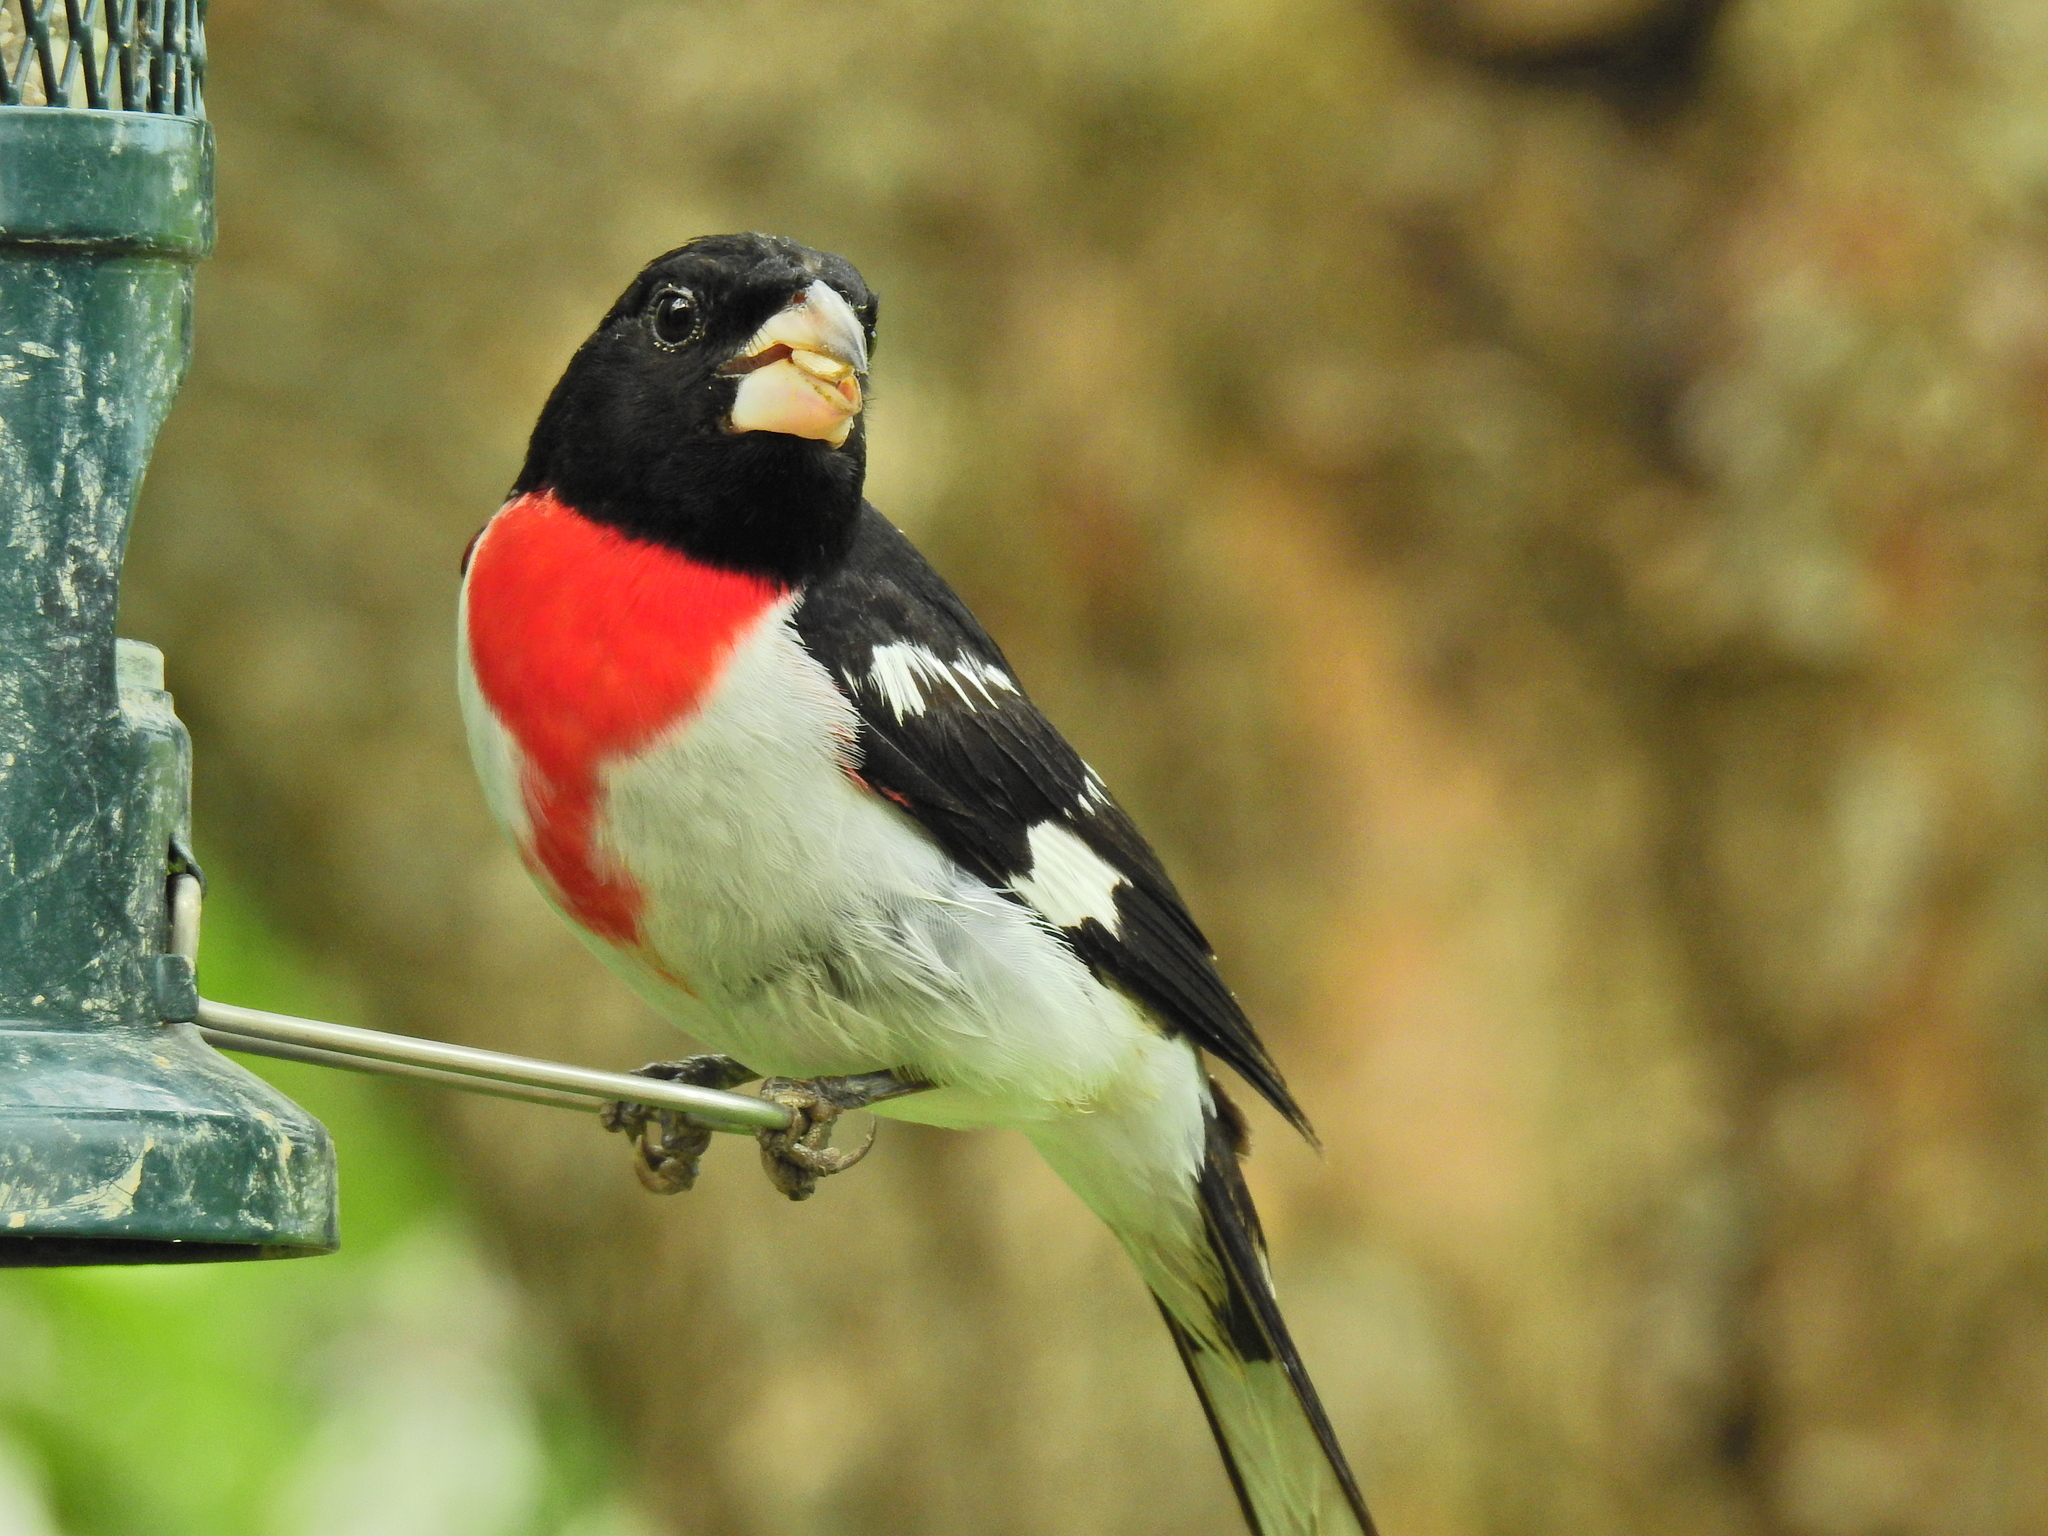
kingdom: Animalia
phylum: Chordata
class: Aves
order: Passeriformes
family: Cardinalidae
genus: Pheucticus
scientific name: Pheucticus ludovicianus
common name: Rose-breasted grosbeak
